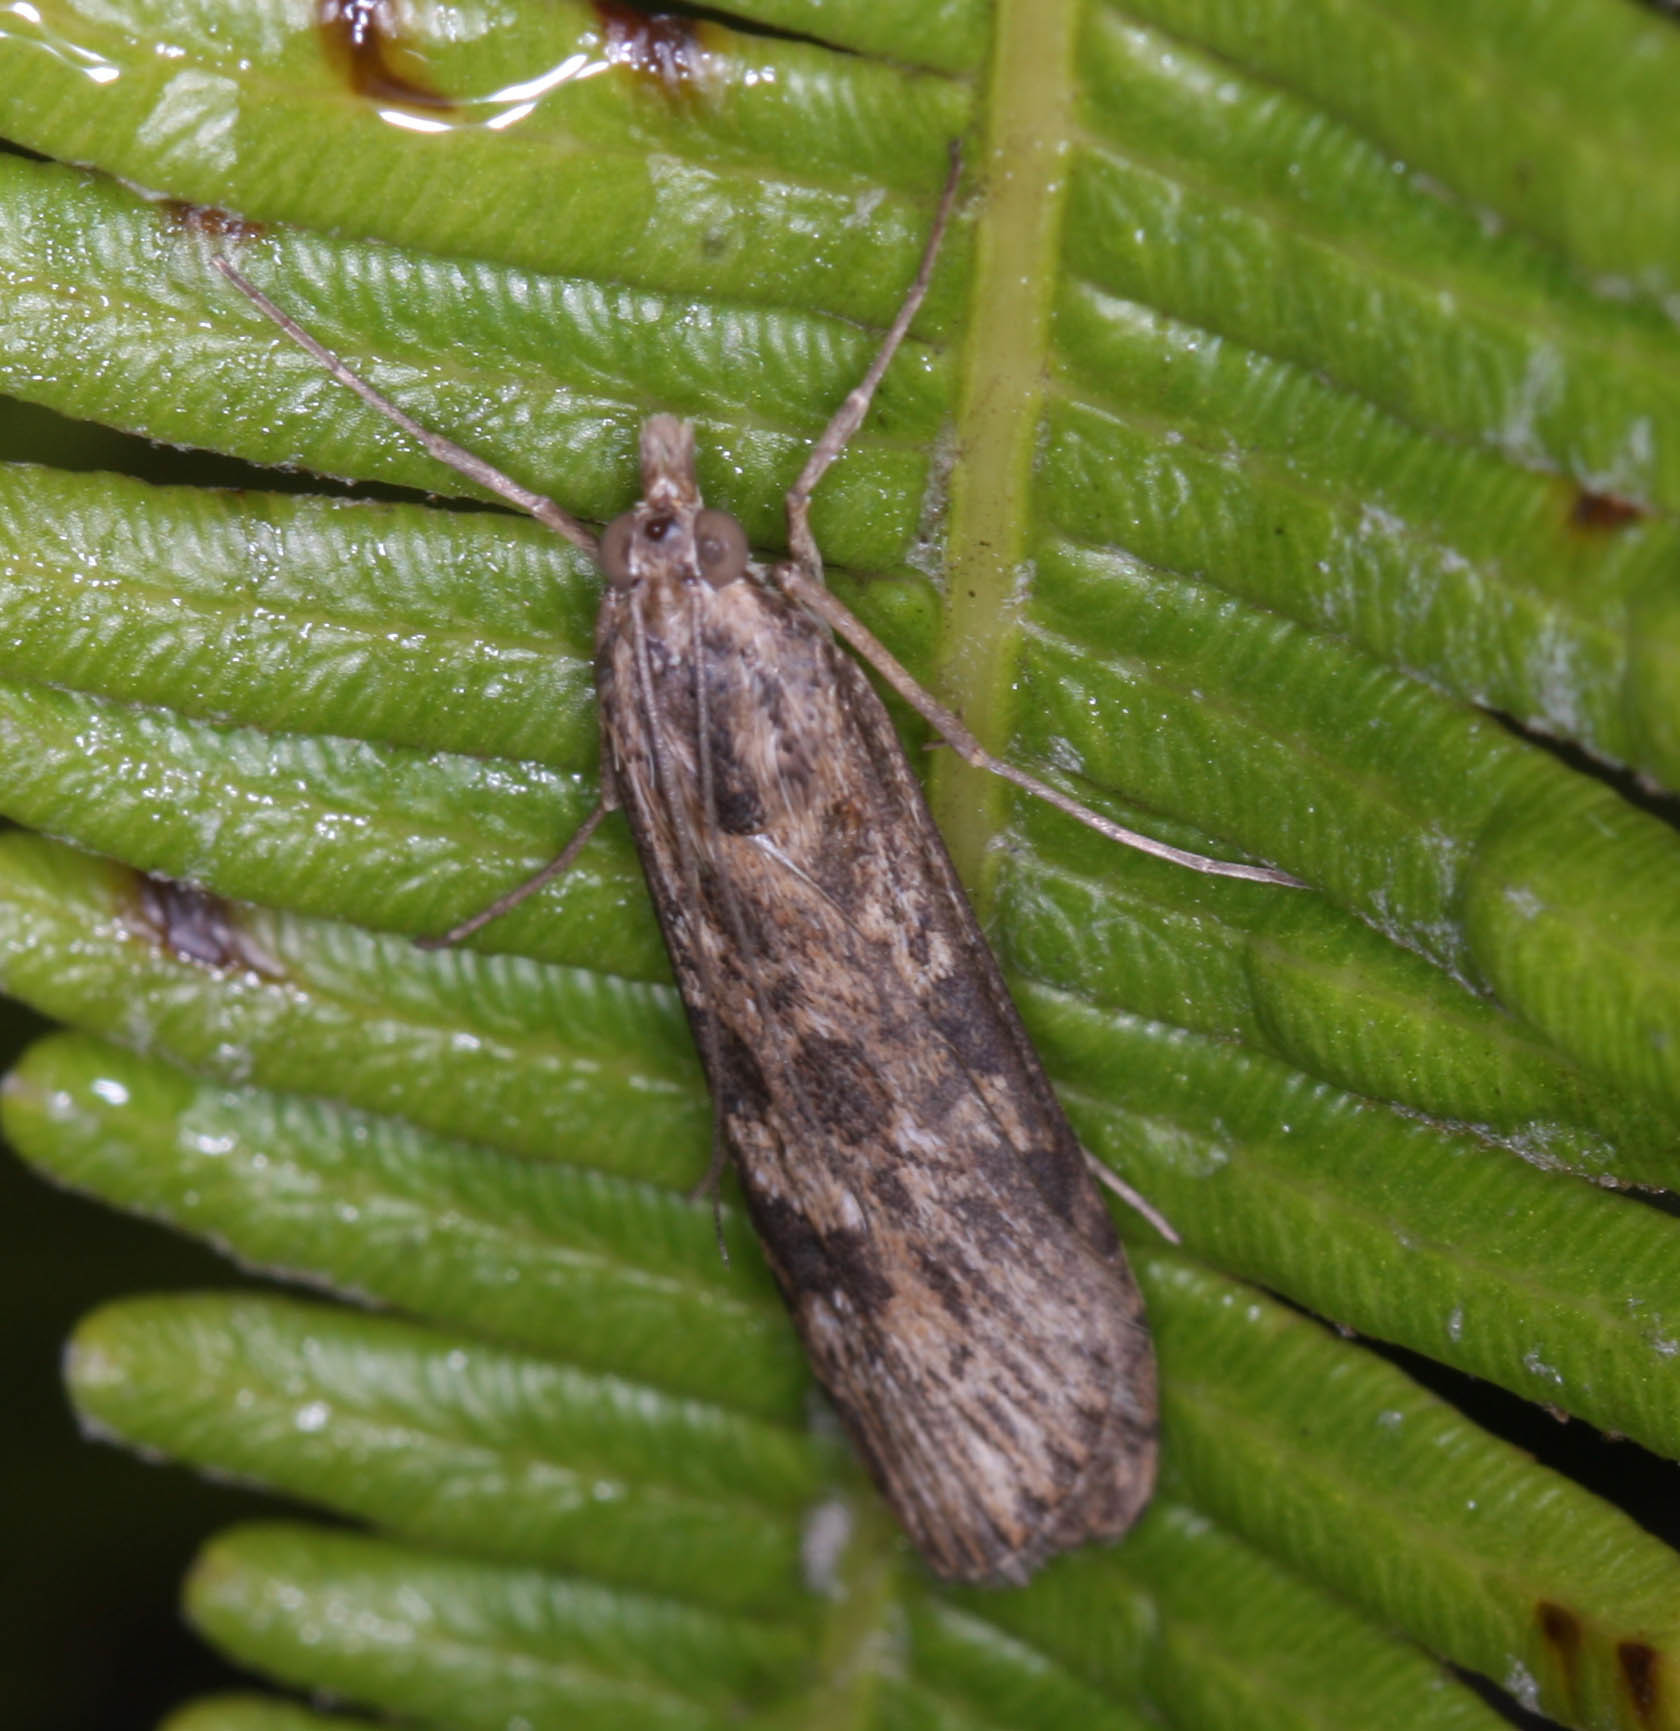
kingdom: Animalia
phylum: Arthropoda
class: Insecta
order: Lepidoptera
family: Crambidae
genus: Nomophila
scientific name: Nomophila noctuella
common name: Rush veneer
